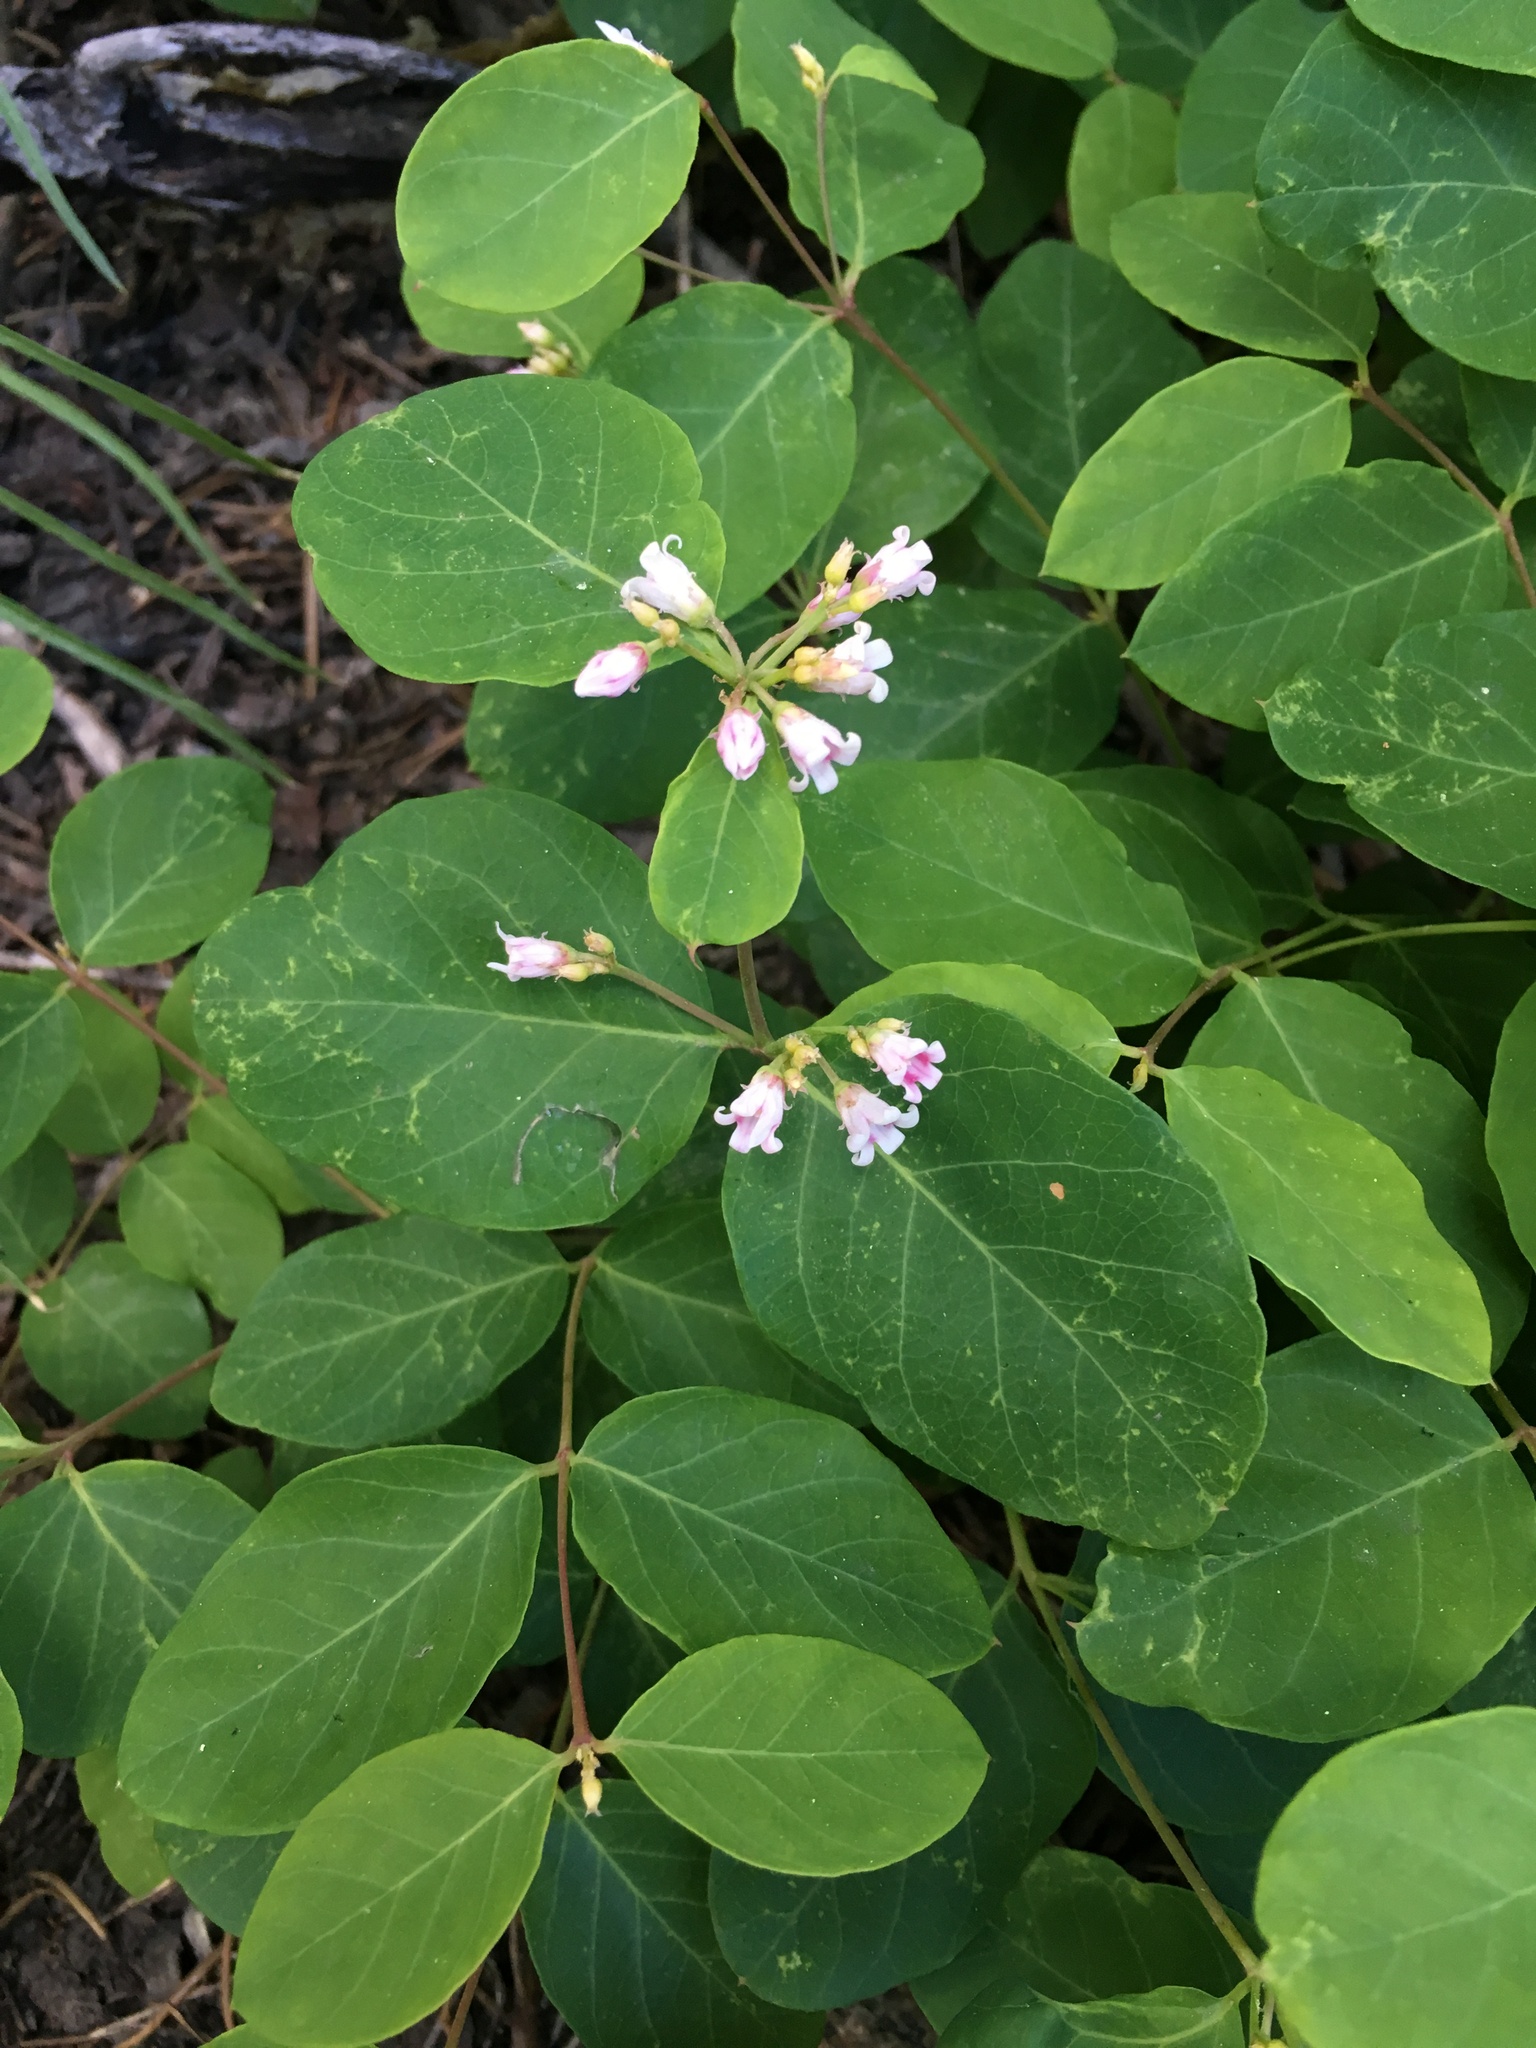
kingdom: Plantae
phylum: Tracheophyta
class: Magnoliopsida
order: Gentianales
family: Apocynaceae
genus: Apocynum
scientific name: Apocynum androsaemifolium
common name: Spreading dogbane
